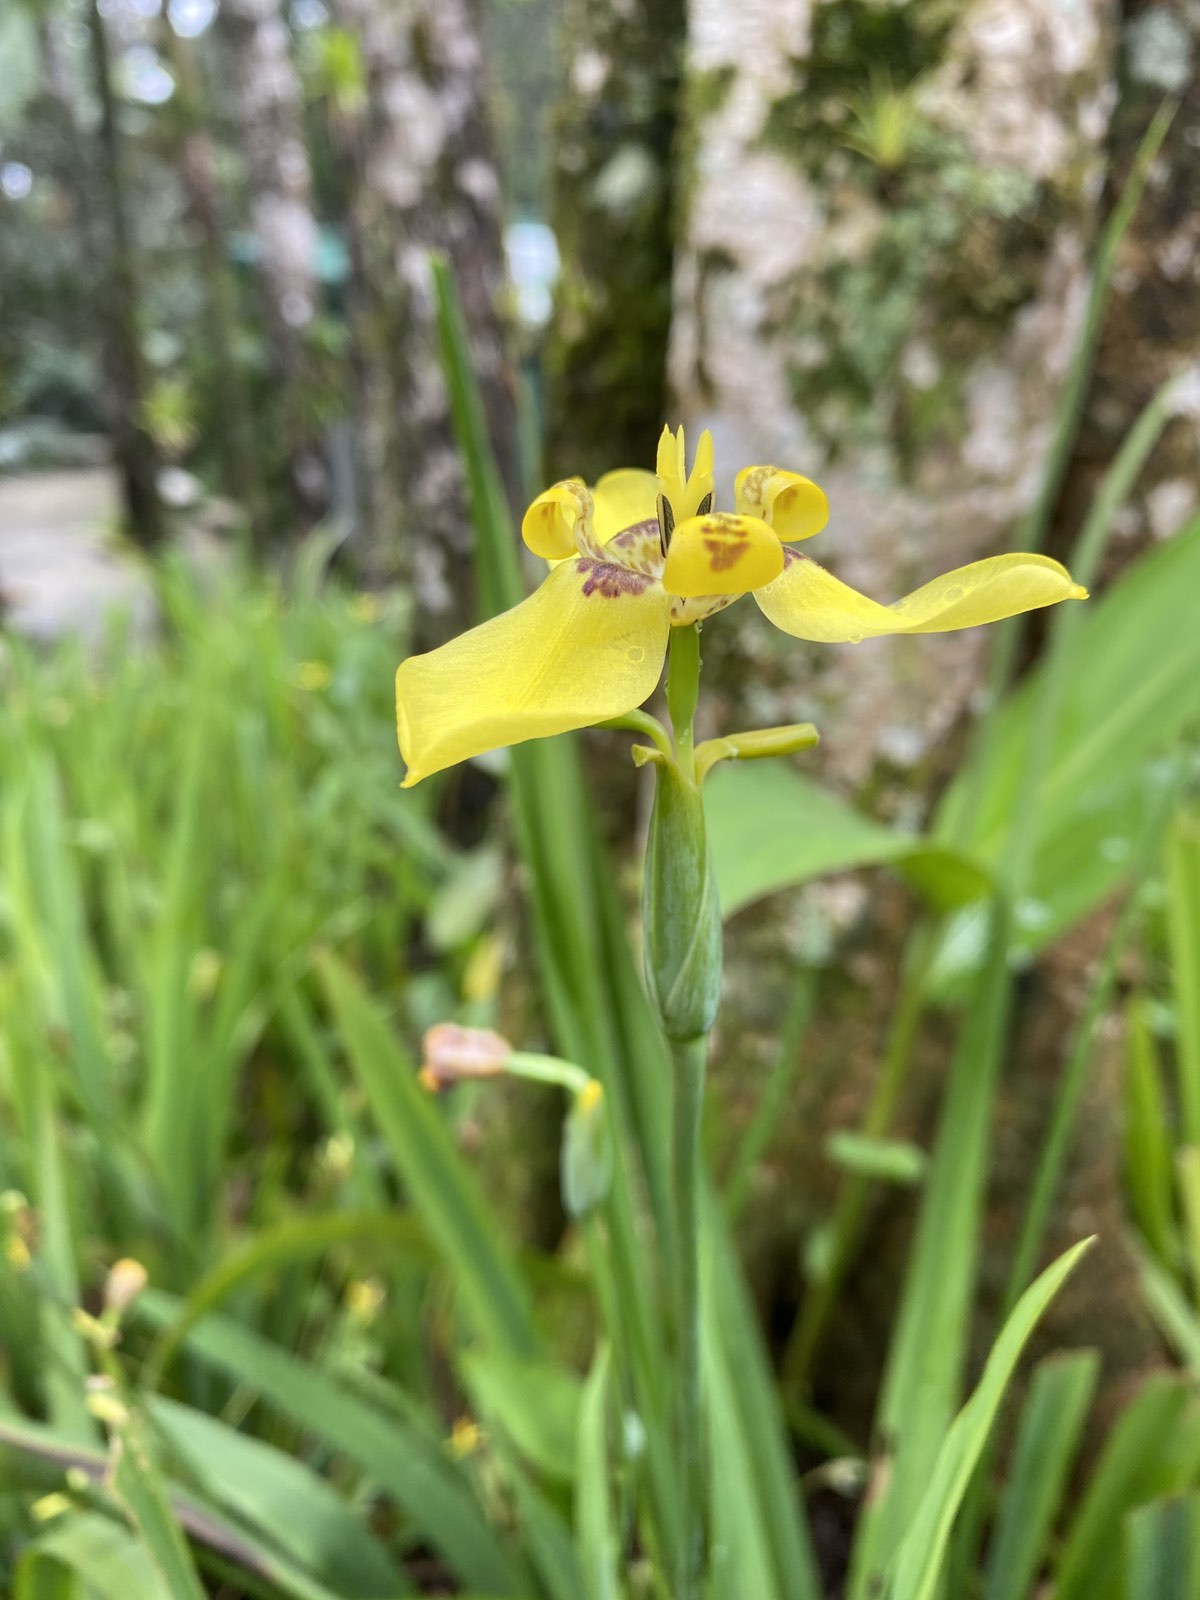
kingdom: Plantae
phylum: Tracheophyta
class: Liliopsida
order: Asparagales
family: Iridaceae
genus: Trimezia
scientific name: Trimezia steyermarkii
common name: Trimezia
